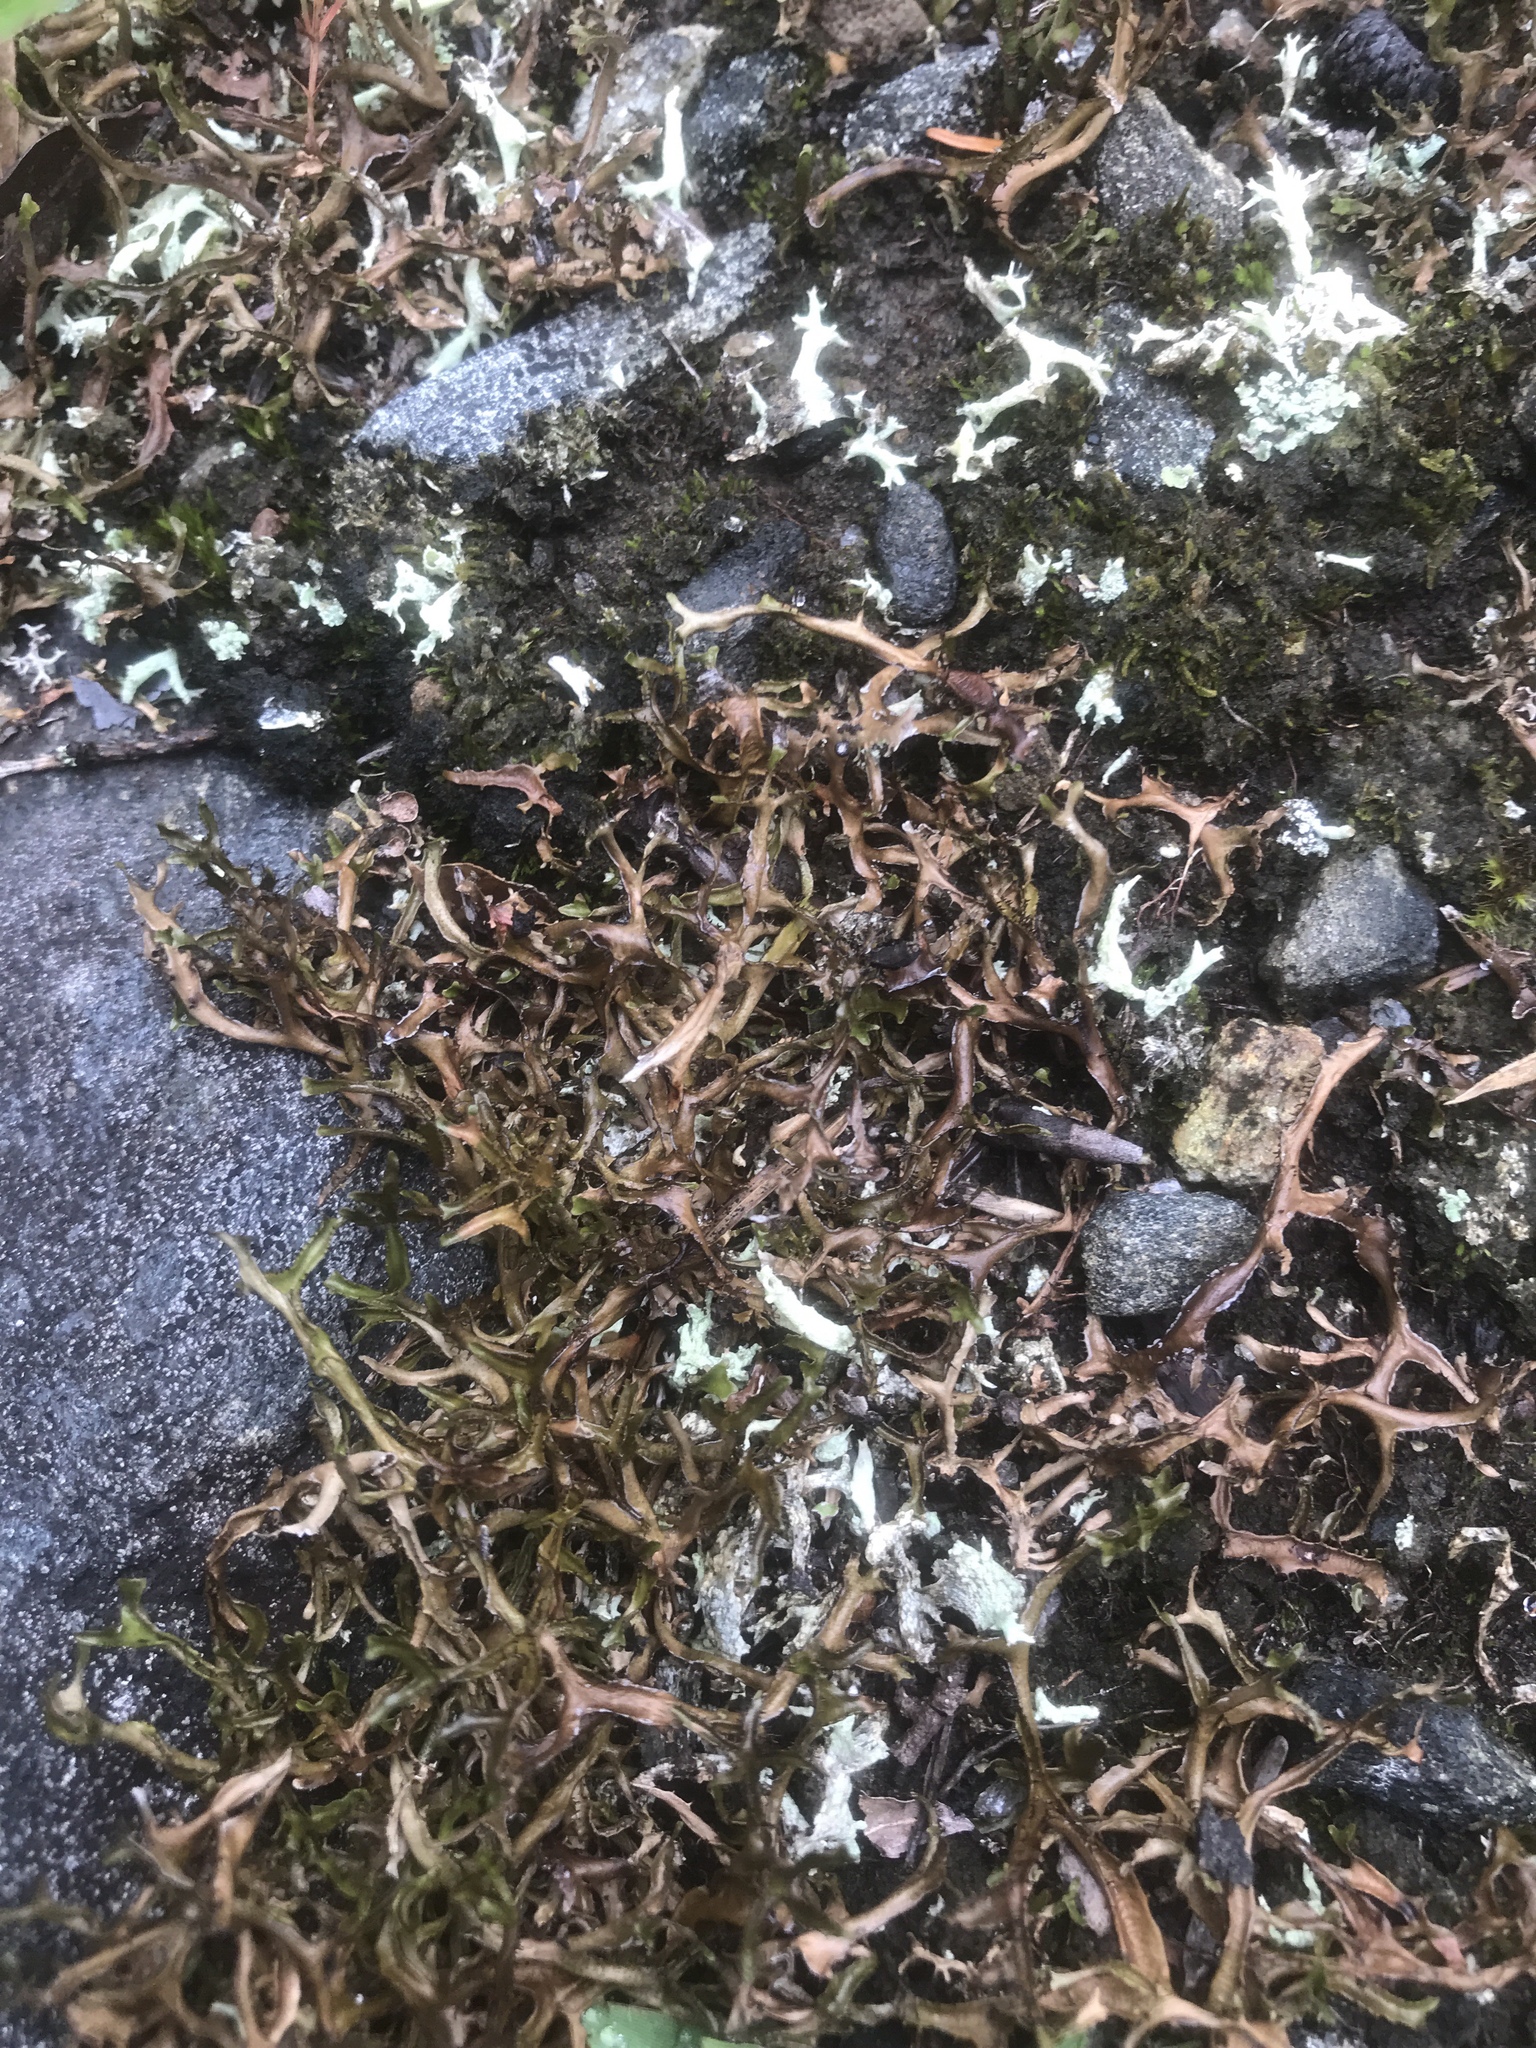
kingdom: Fungi
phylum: Ascomycota
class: Lecanoromycetes
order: Lecanorales
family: Parmeliaceae
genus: Cetraria
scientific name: Cetraria arenaria
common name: Sand-loving iceland lichen
